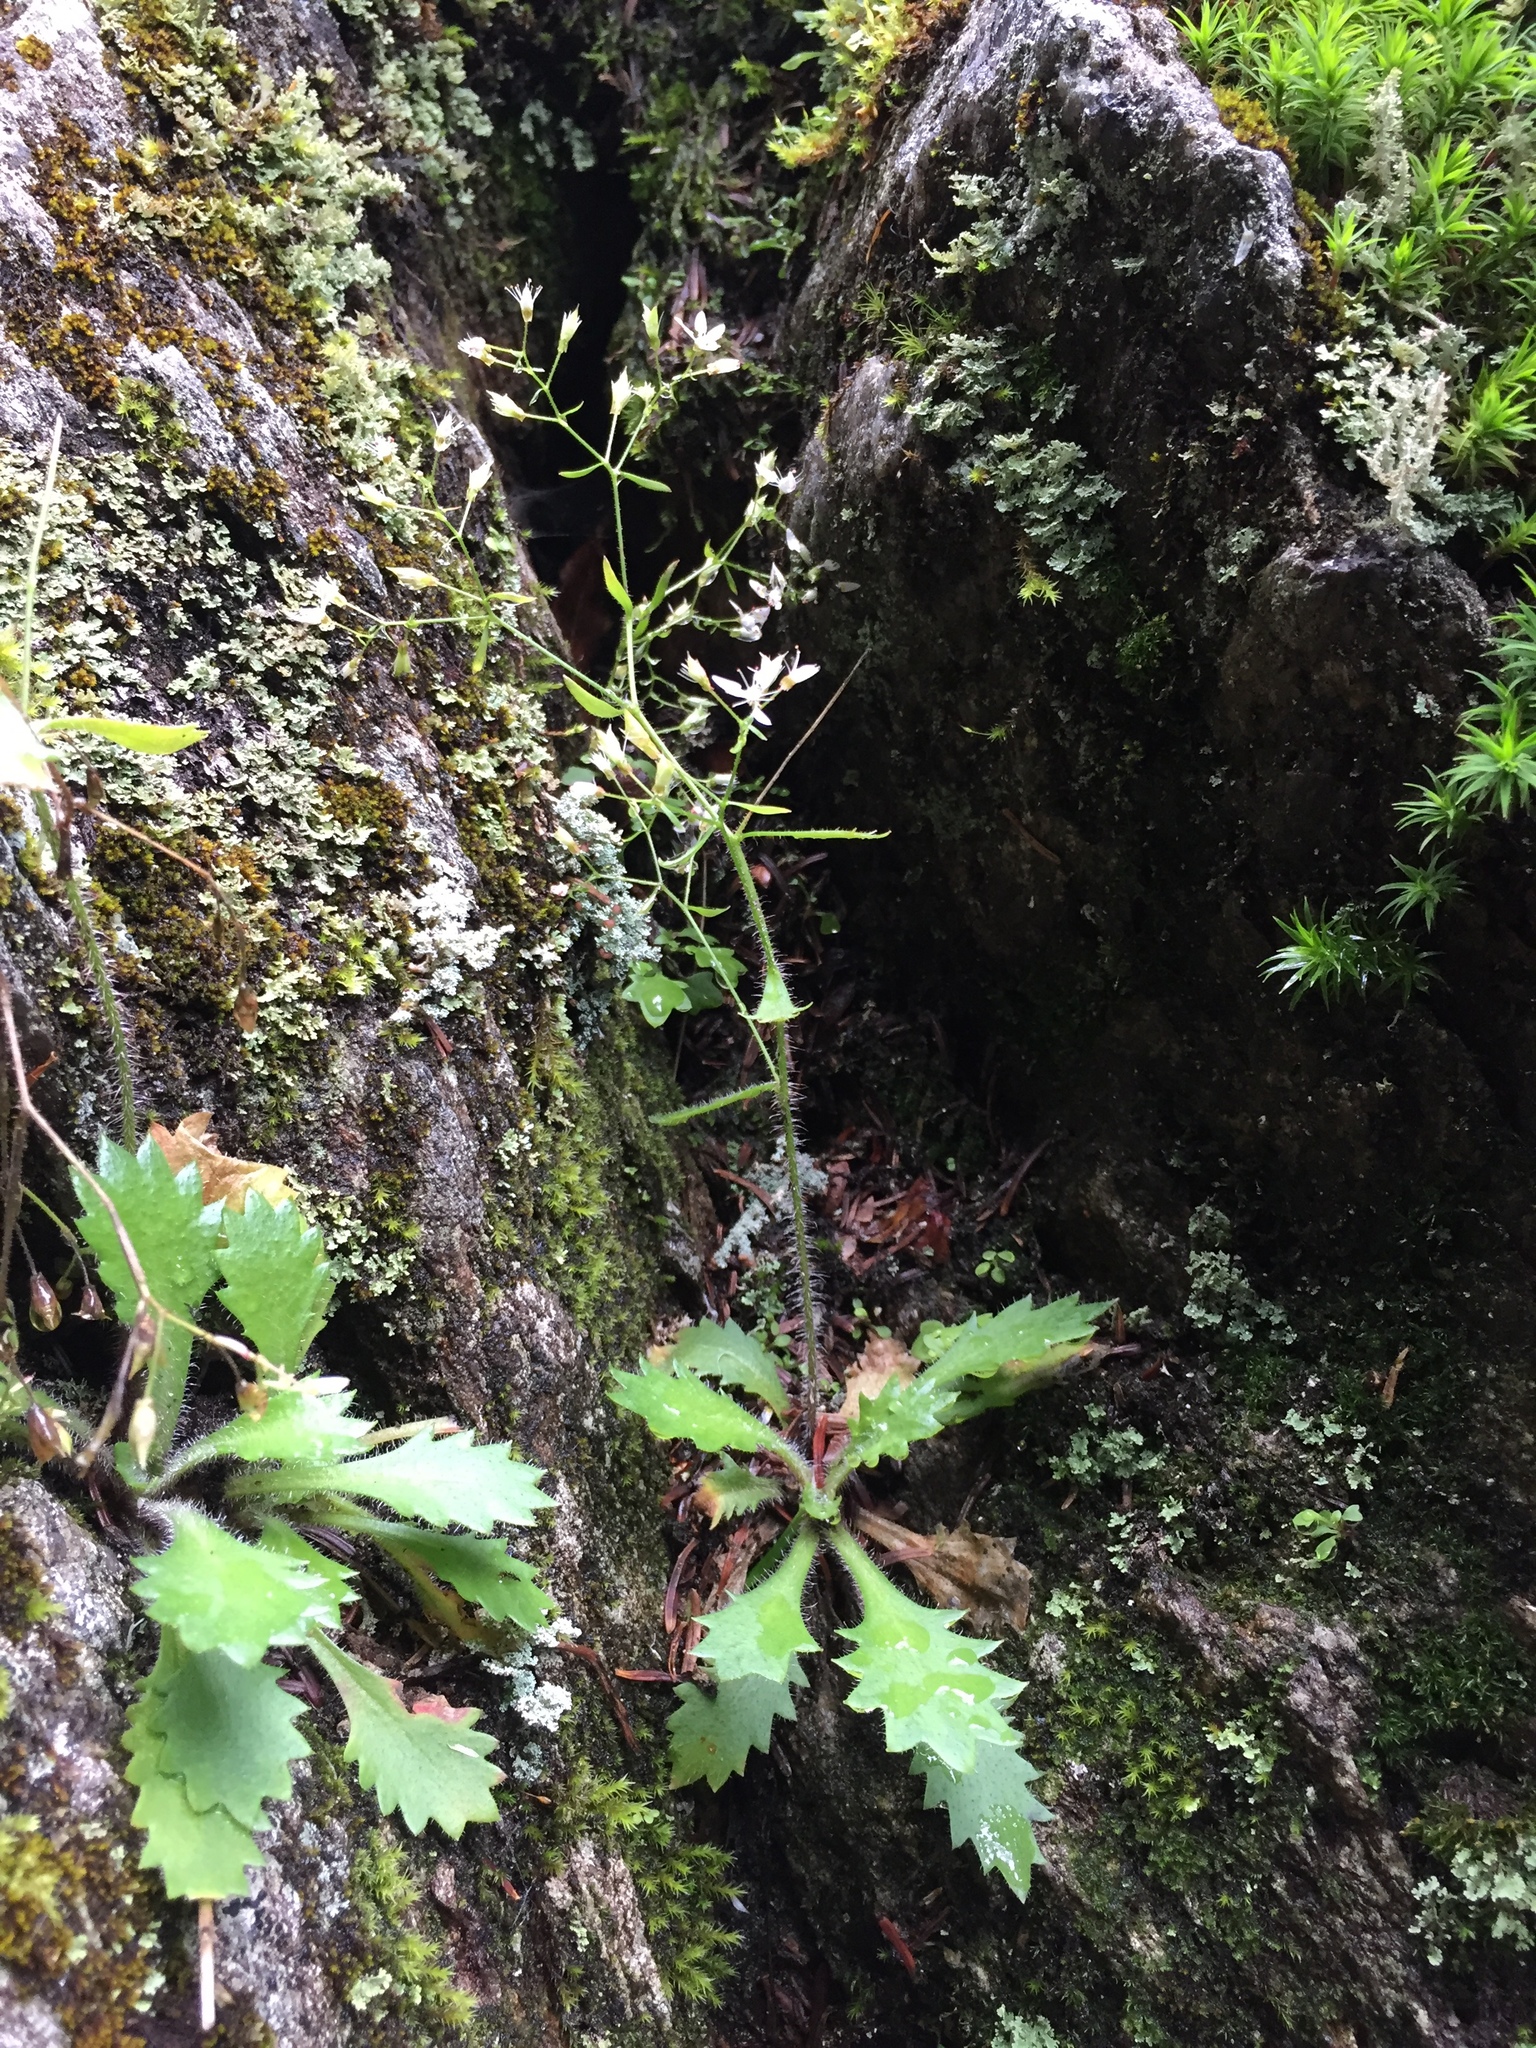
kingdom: Plantae
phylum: Tracheophyta
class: Magnoliopsida
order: Saxifragales
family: Saxifragaceae
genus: Micranthes
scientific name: Micranthes petiolaris
